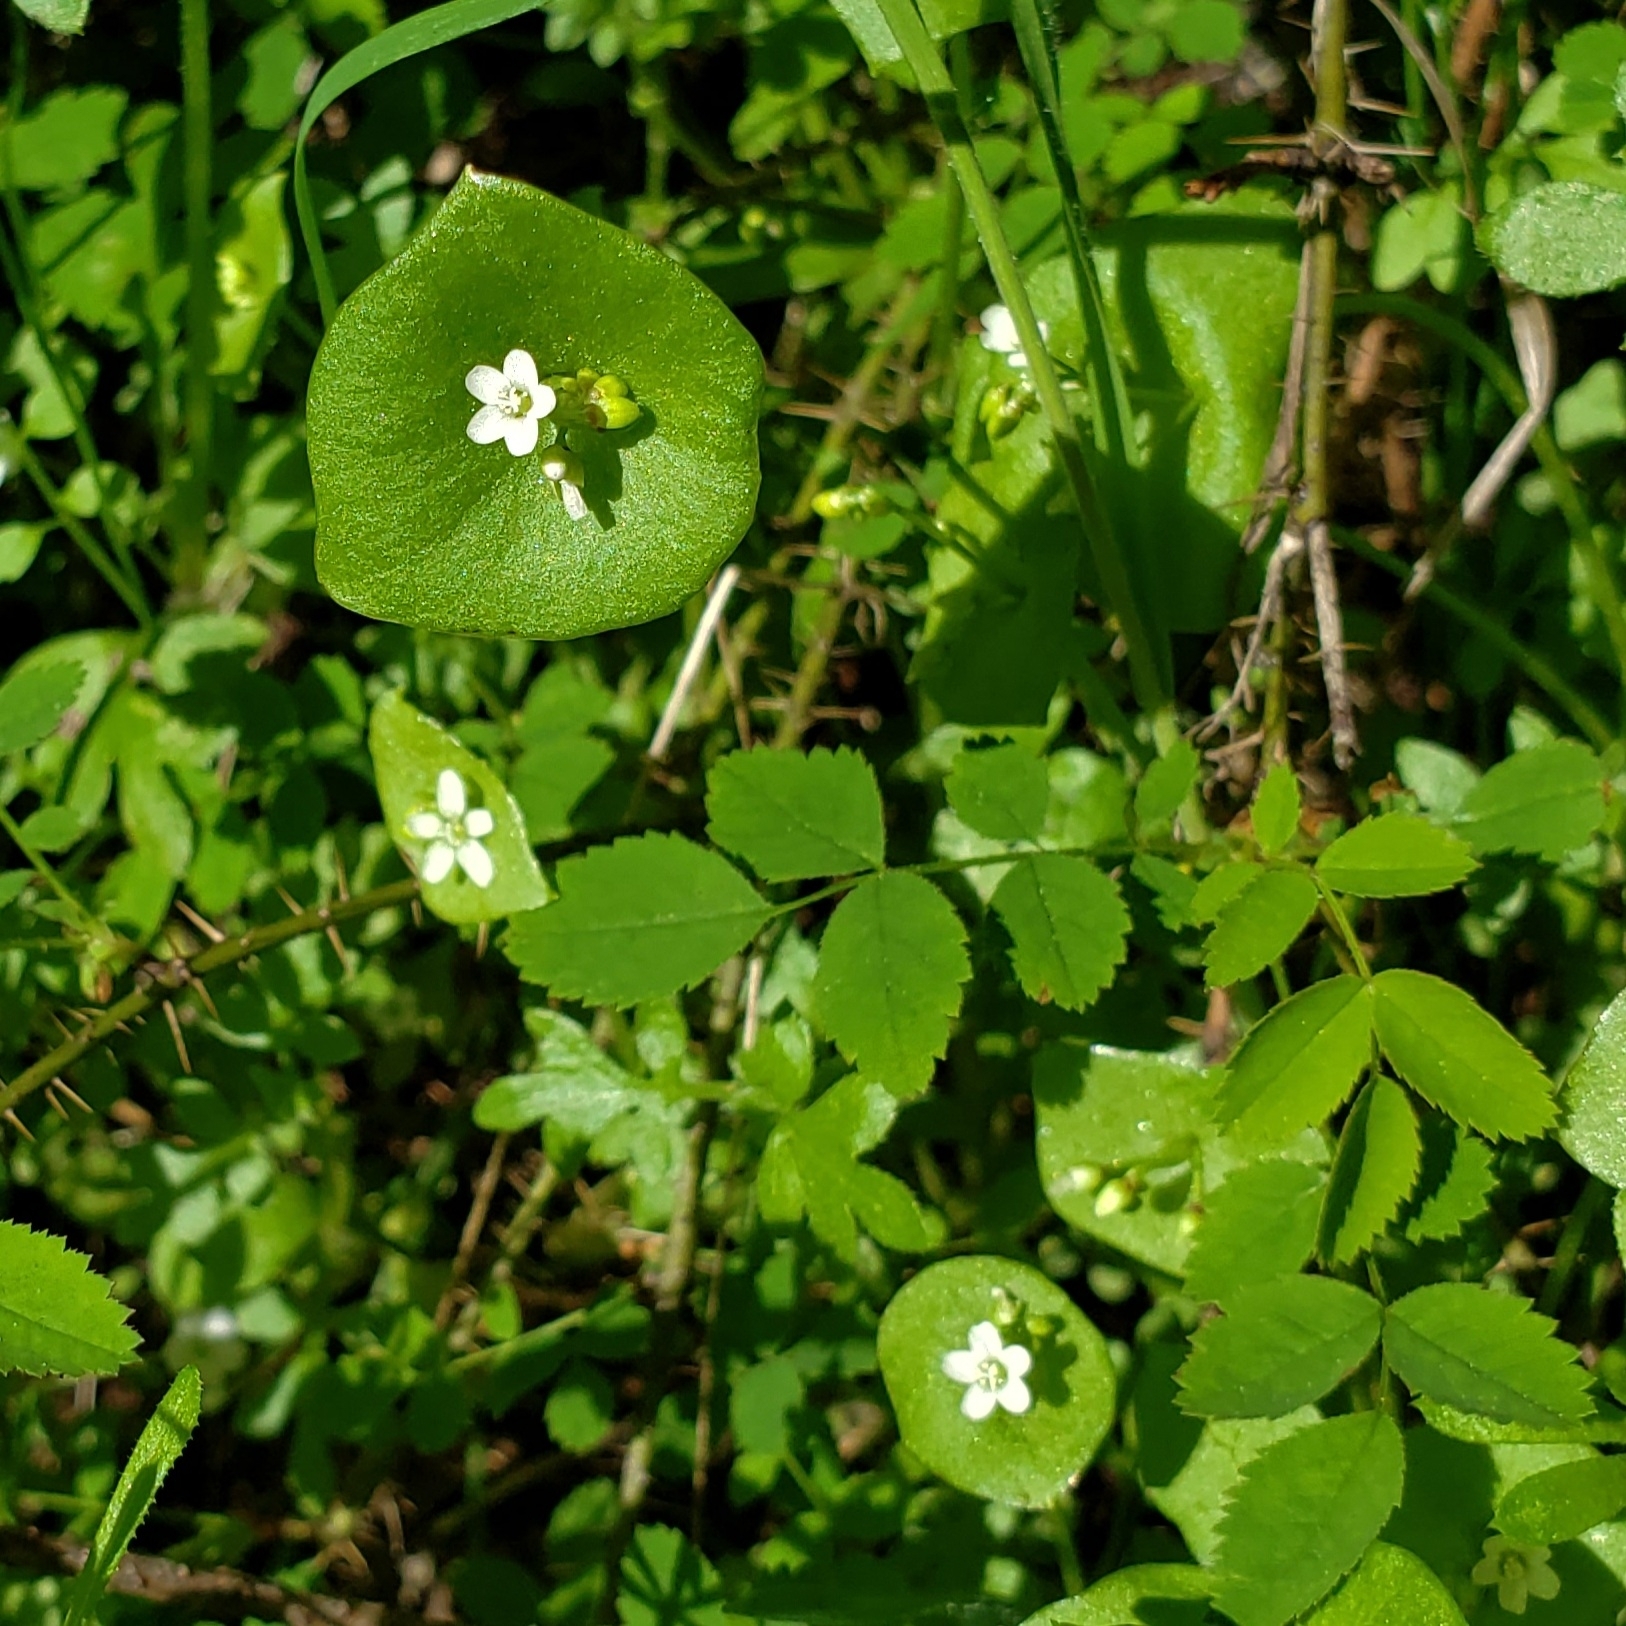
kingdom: Plantae
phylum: Tracheophyta
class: Magnoliopsida
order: Caryophyllales
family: Montiaceae
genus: Claytonia
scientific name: Claytonia perfoliata
